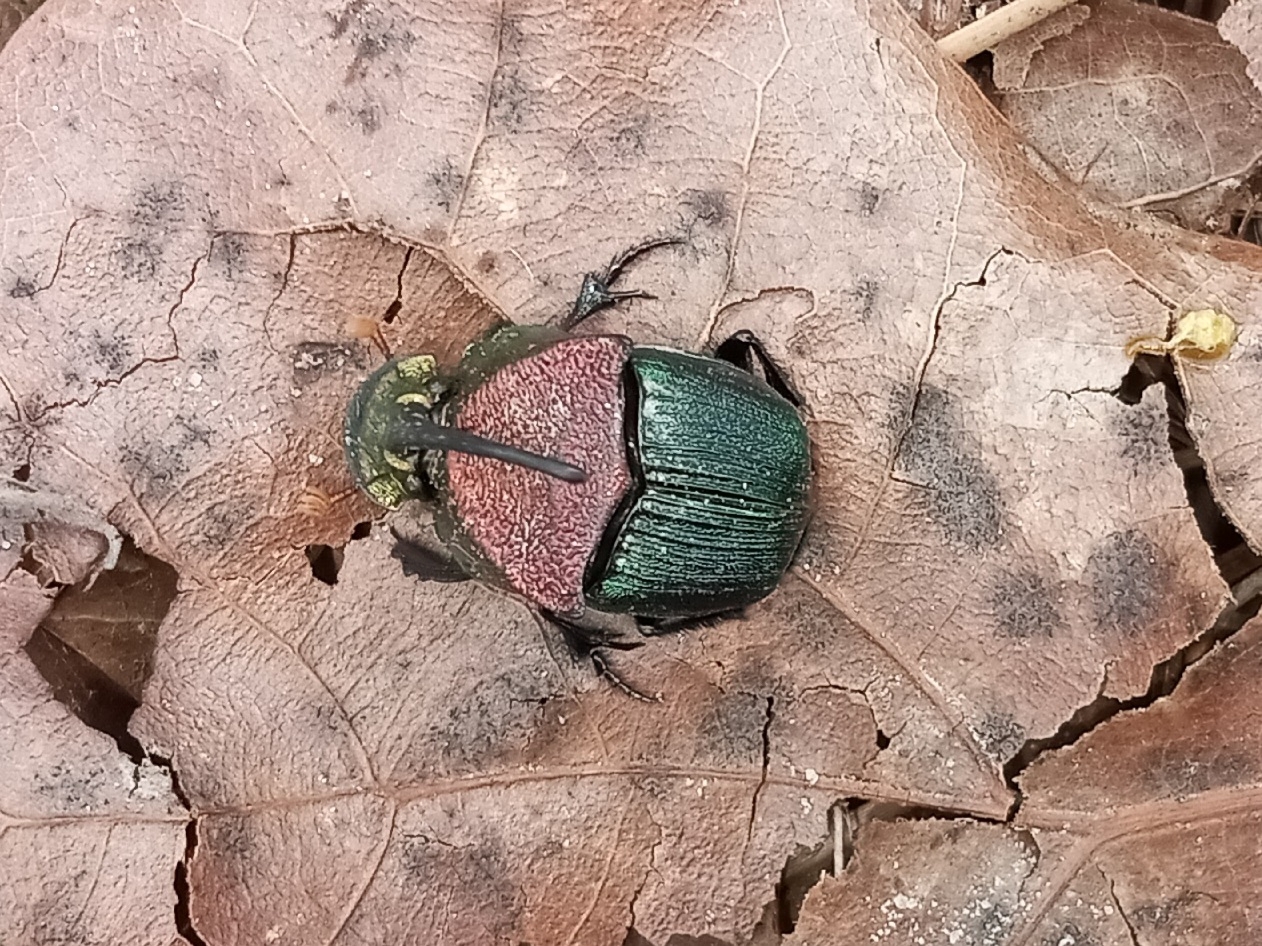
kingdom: Animalia
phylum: Arthropoda
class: Insecta
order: Coleoptera
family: Scarabaeidae
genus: Phanaeus
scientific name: Phanaeus vindex
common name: Rainbow scarab
